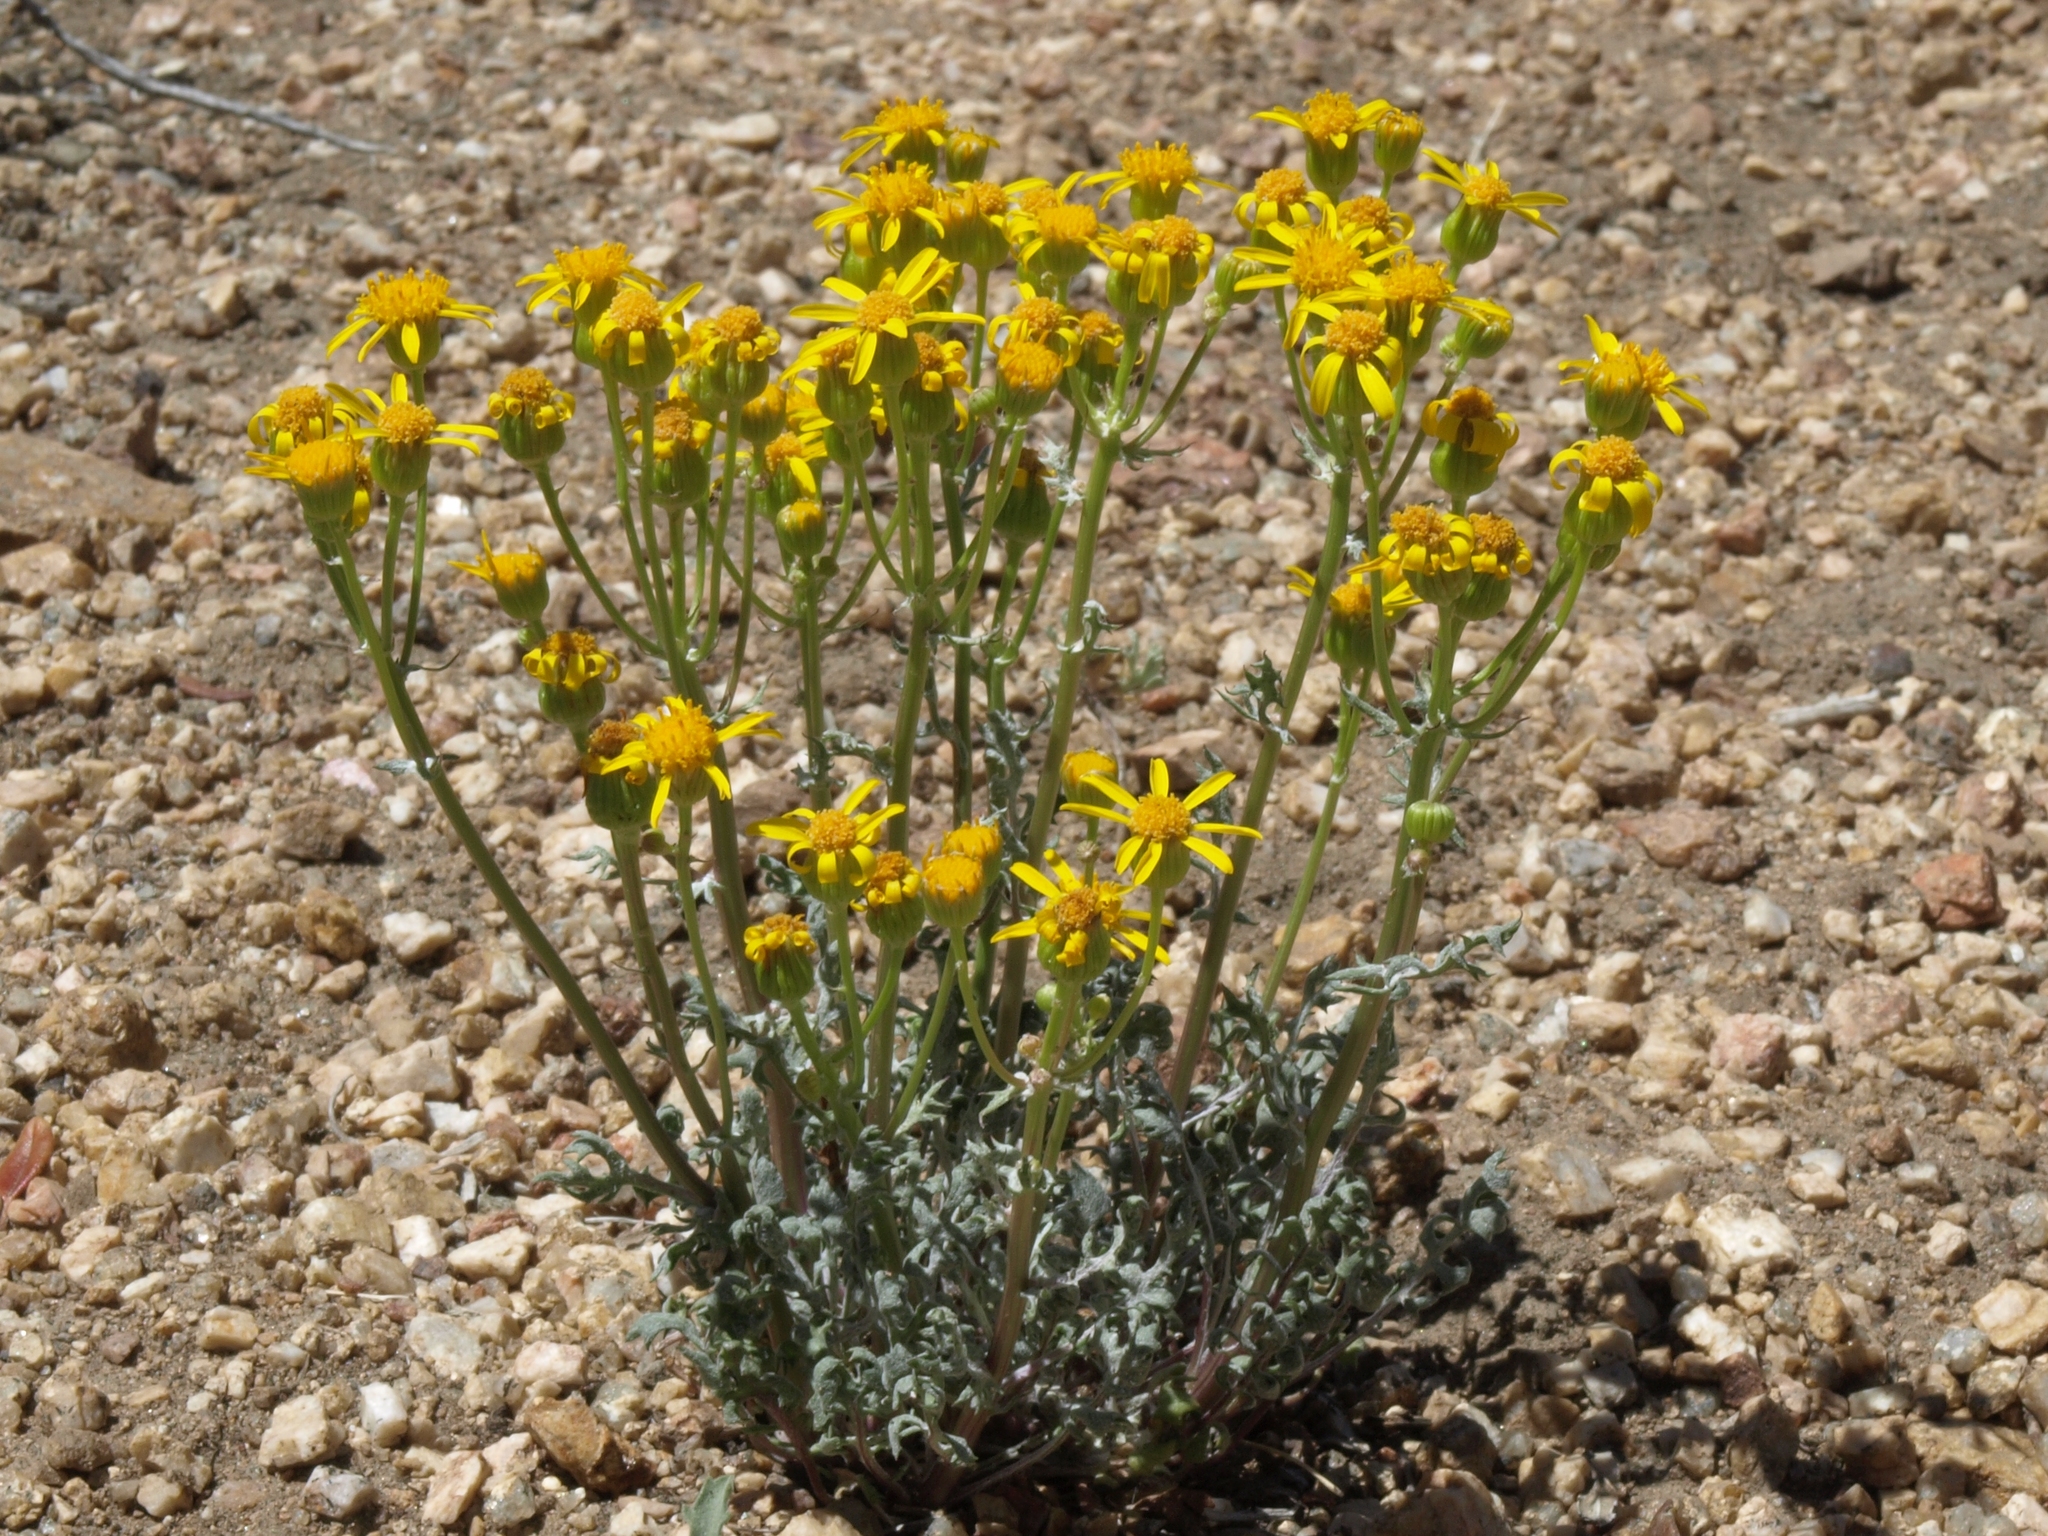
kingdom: Plantae
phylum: Tracheophyta
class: Magnoliopsida
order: Asterales
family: Asteraceae
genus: Packera
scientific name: Packera multilobata
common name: Lobe-leaf groundsel
